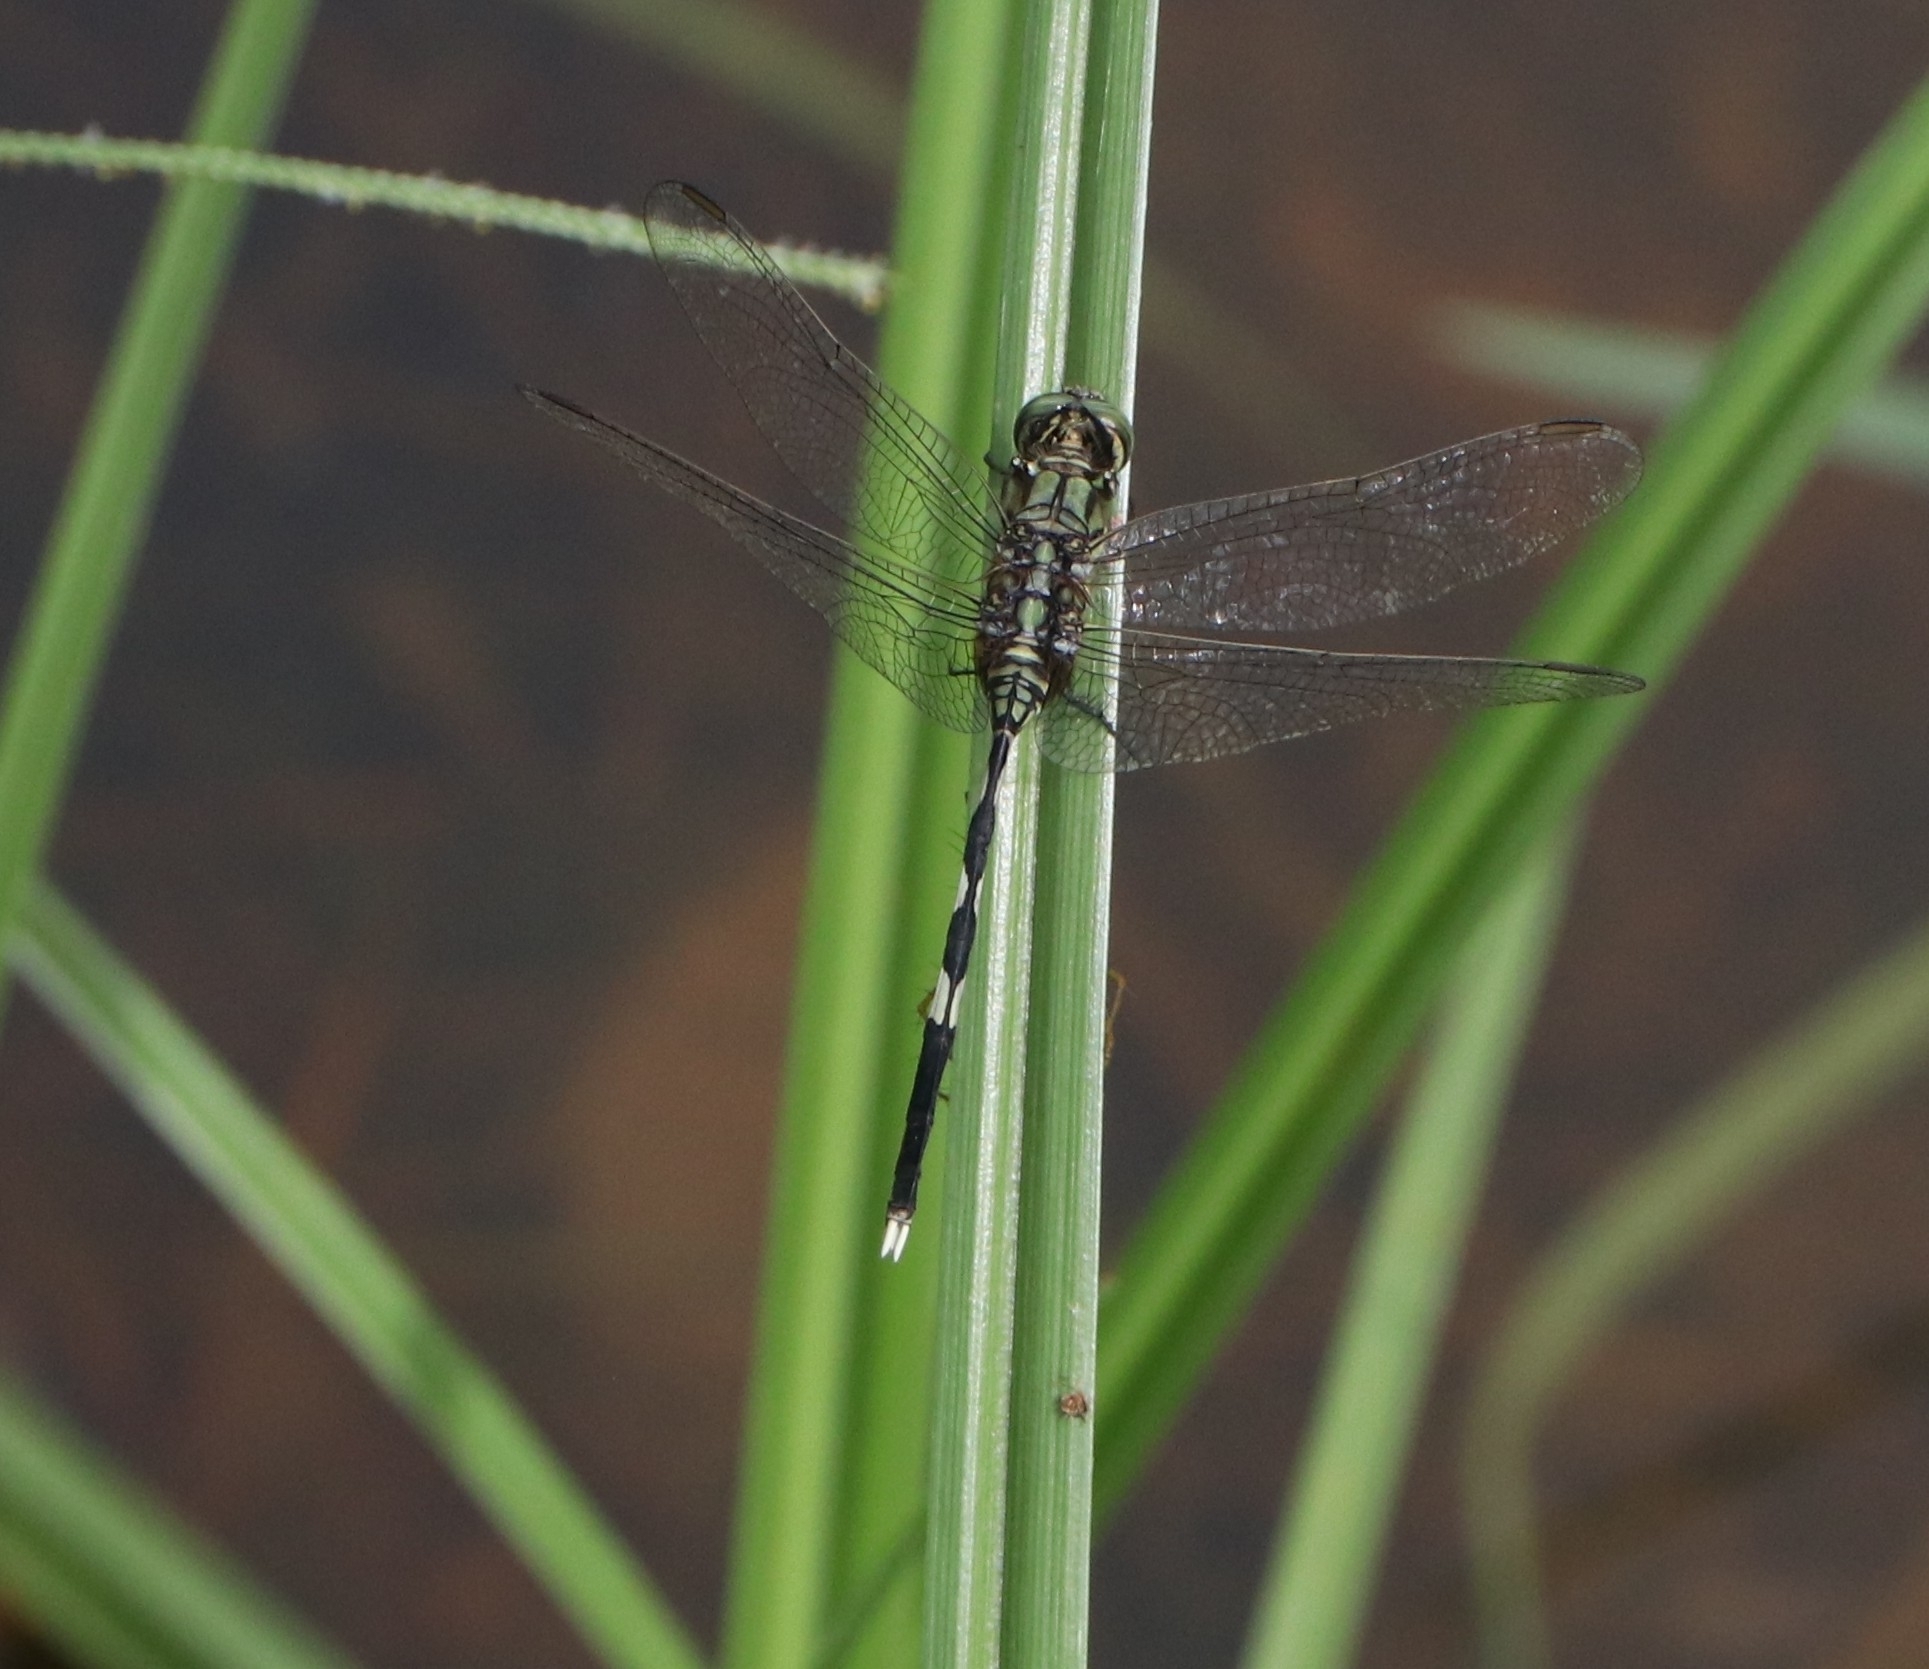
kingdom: Animalia
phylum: Arthropoda
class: Insecta
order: Odonata
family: Libellulidae
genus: Orthetrum
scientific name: Orthetrum sabina
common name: Slender skimmer
